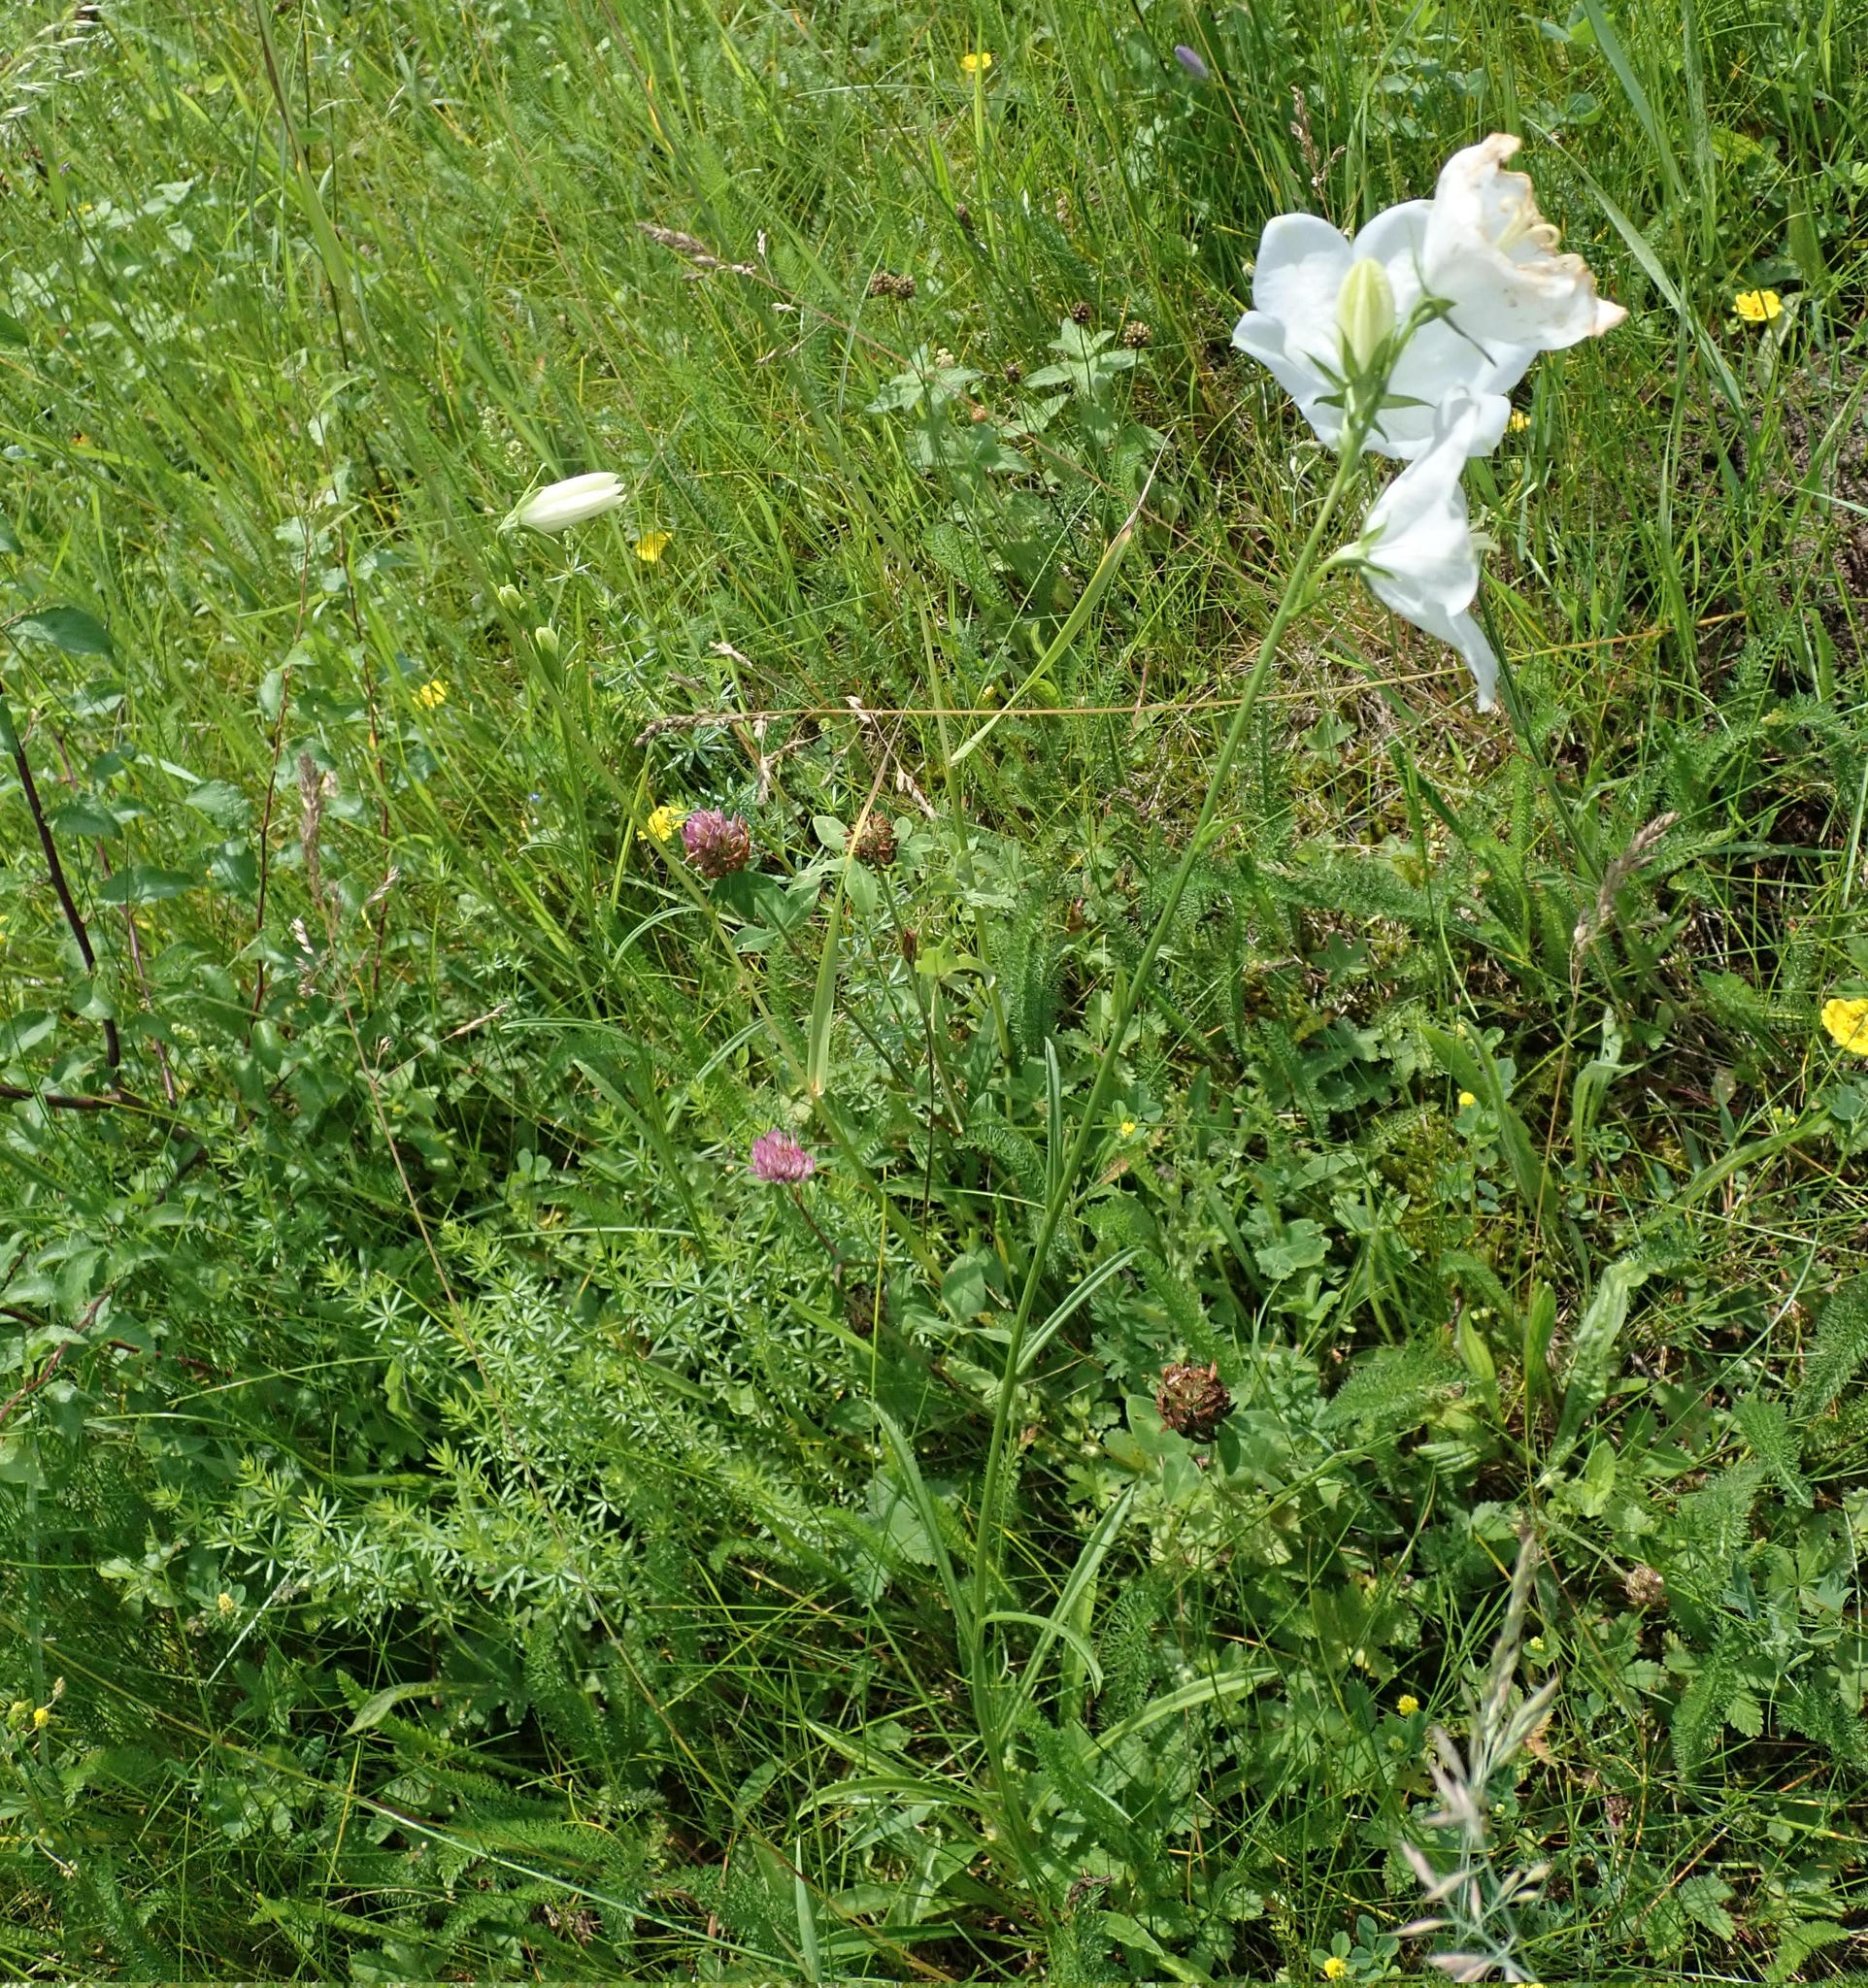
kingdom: Plantae
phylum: Tracheophyta
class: Magnoliopsida
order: Asterales
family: Campanulaceae
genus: Campanula
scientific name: Campanula persicifolia
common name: Peach-leaved bellflower
